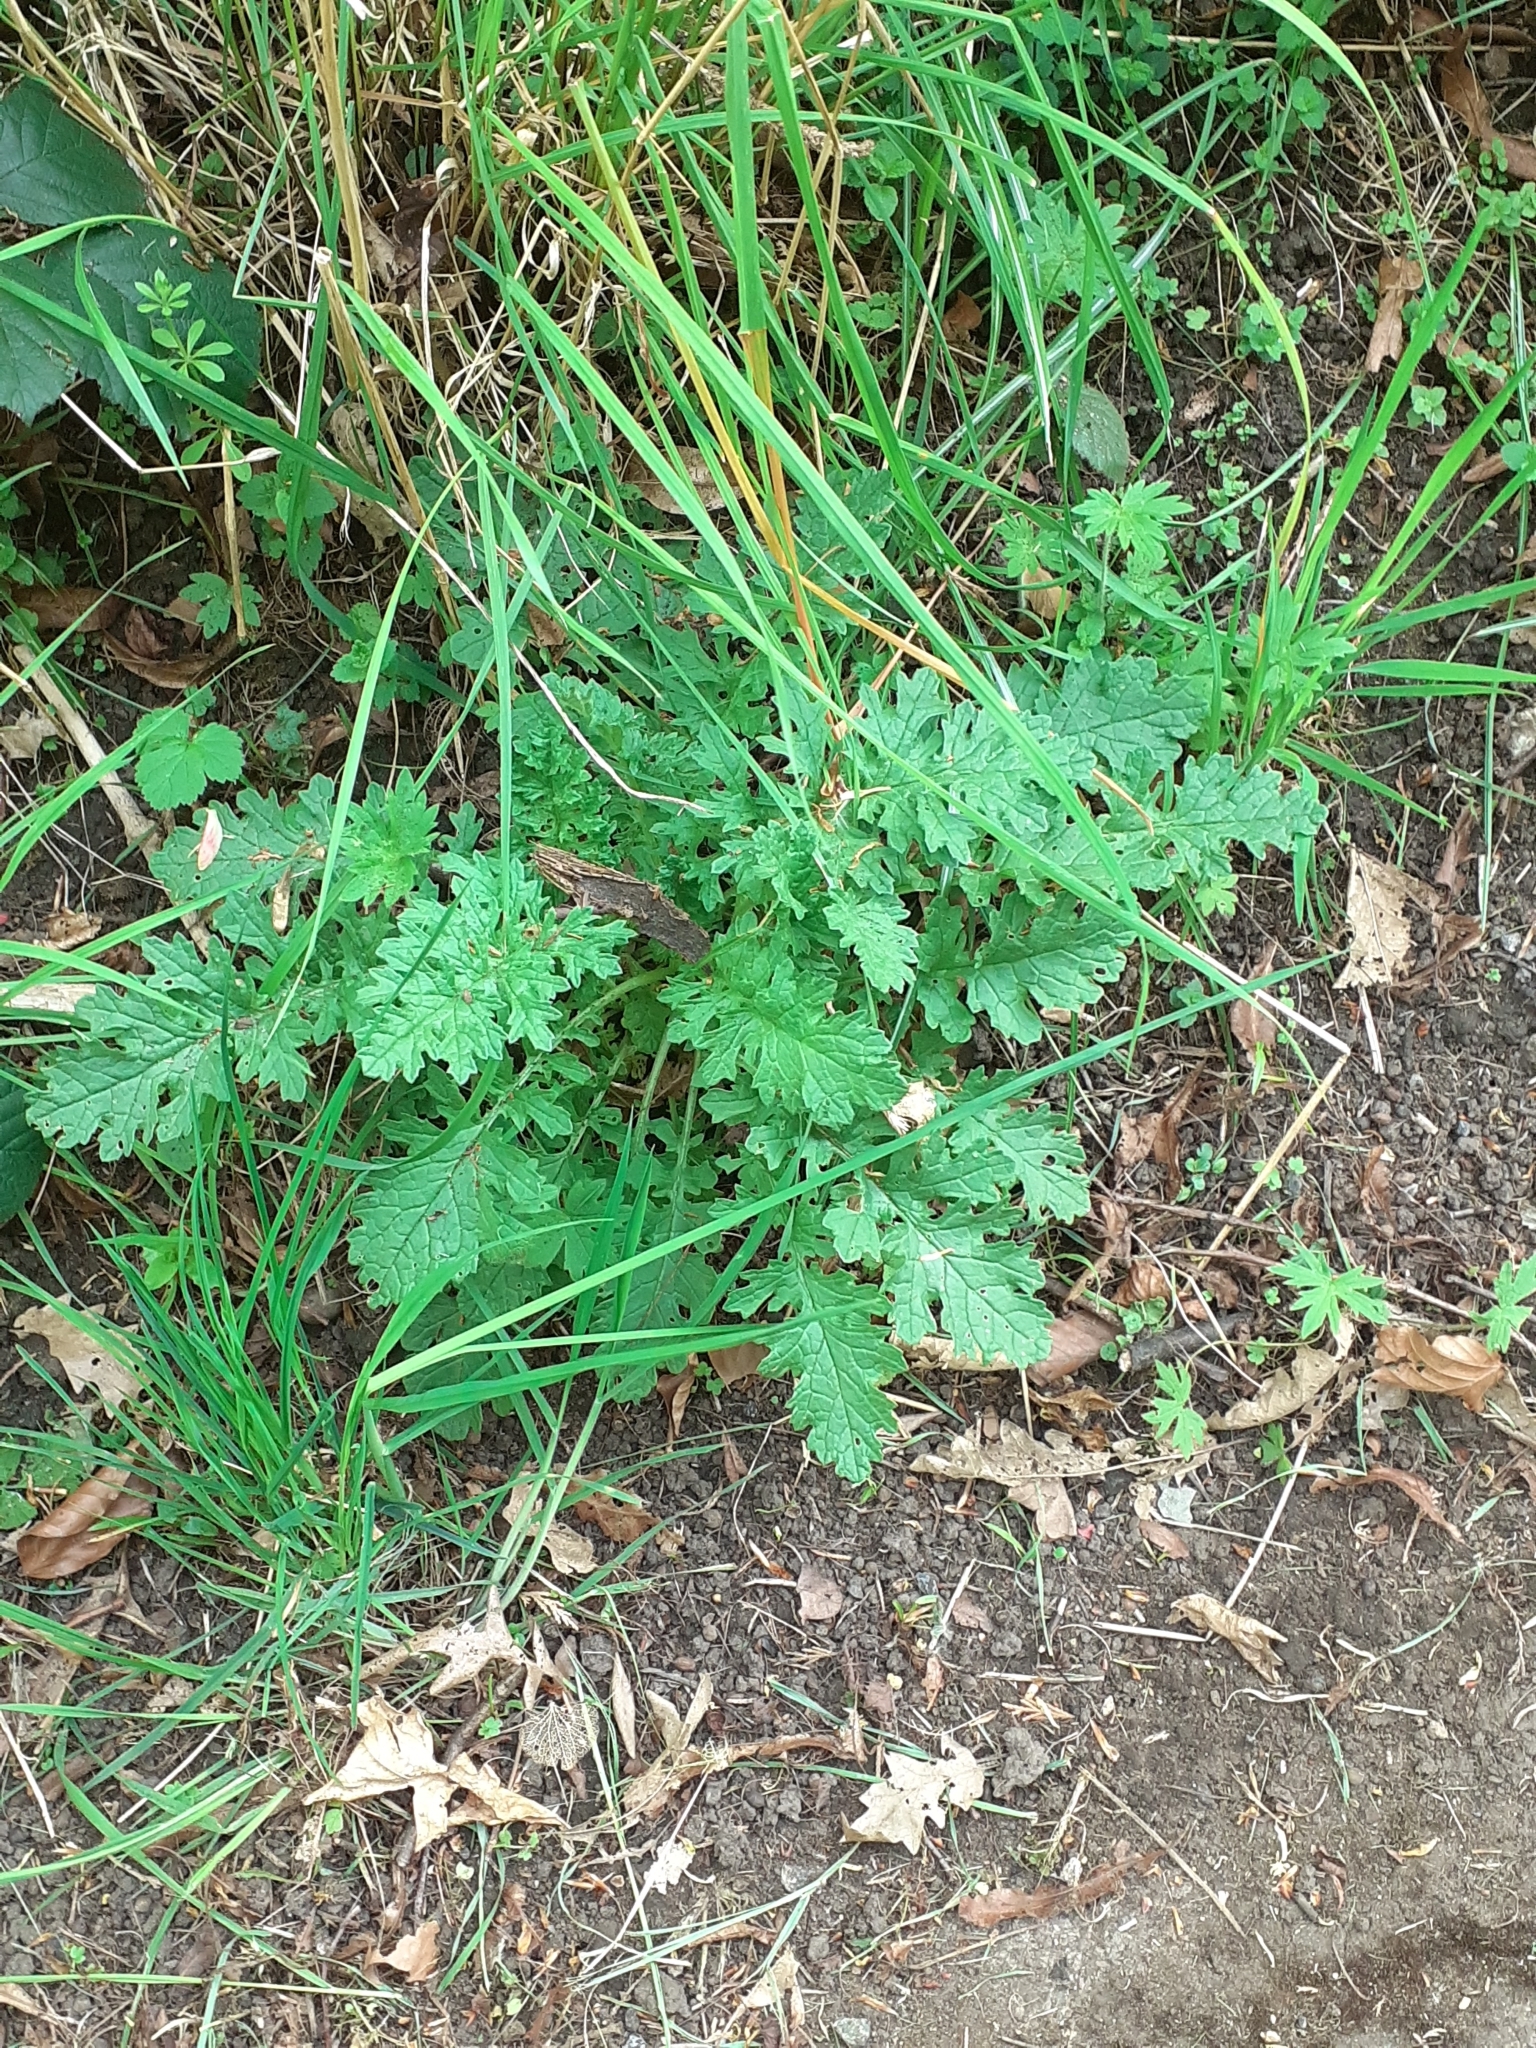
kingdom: Plantae
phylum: Tracheophyta
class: Magnoliopsida
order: Asterales
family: Asteraceae
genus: Jacobaea
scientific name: Jacobaea vulgaris
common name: Stinking willie
